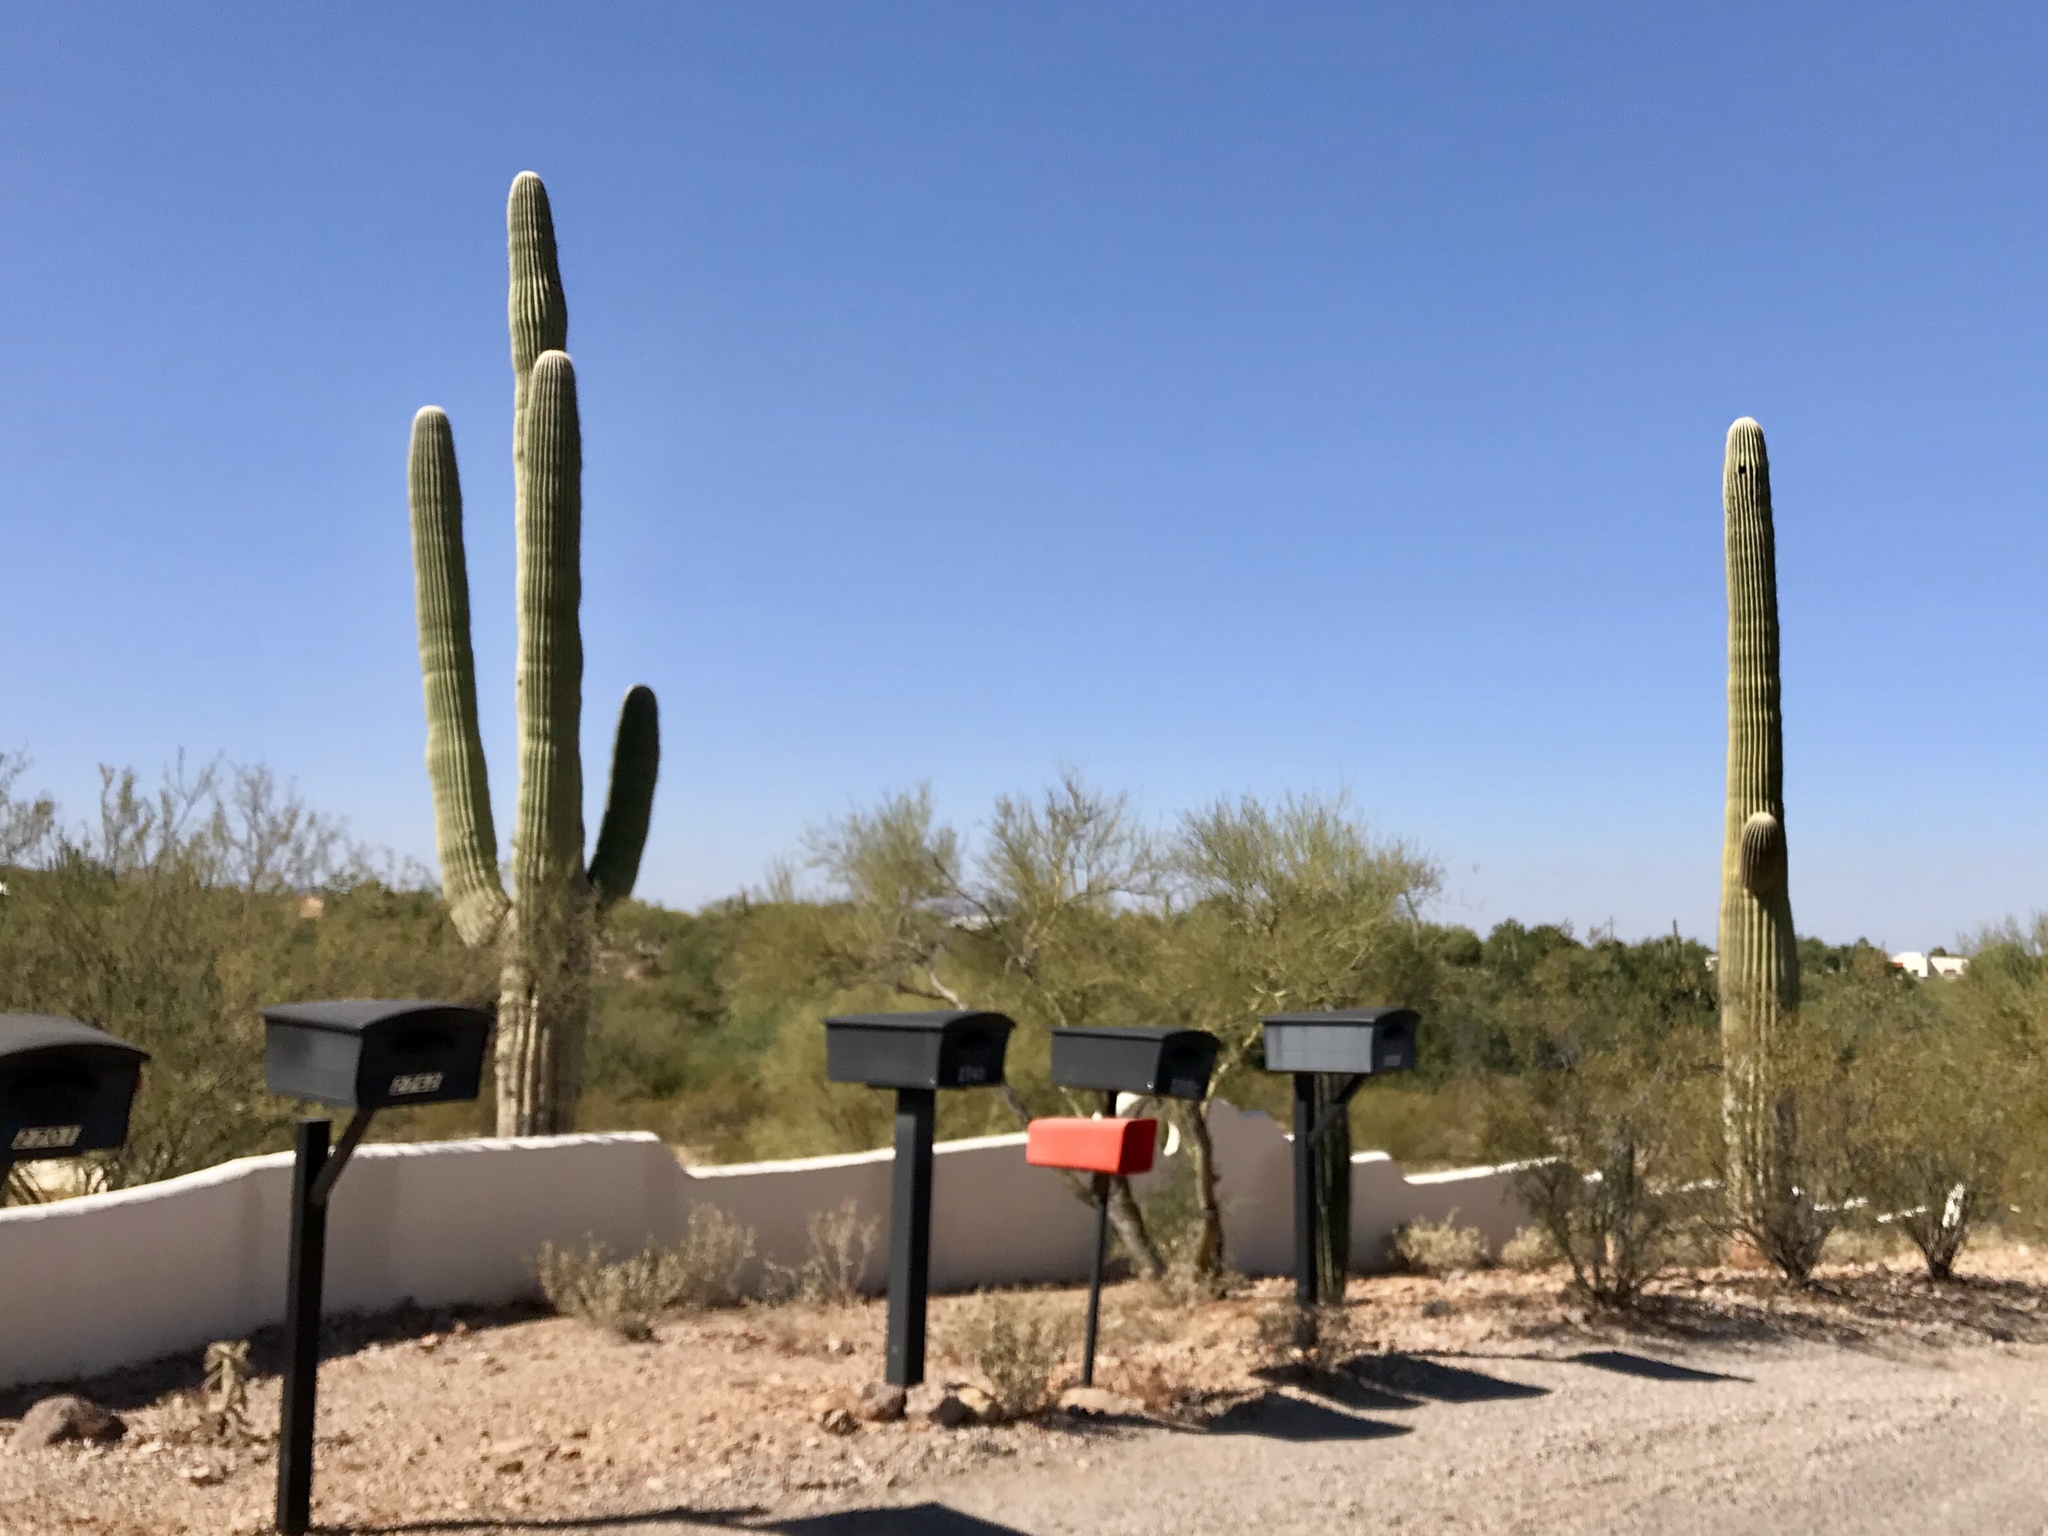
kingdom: Plantae
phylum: Tracheophyta
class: Magnoliopsida
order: Caryophyllales
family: Cactaceae
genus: Carnegiea
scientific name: Carnegiea gigantea
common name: Saguaro
